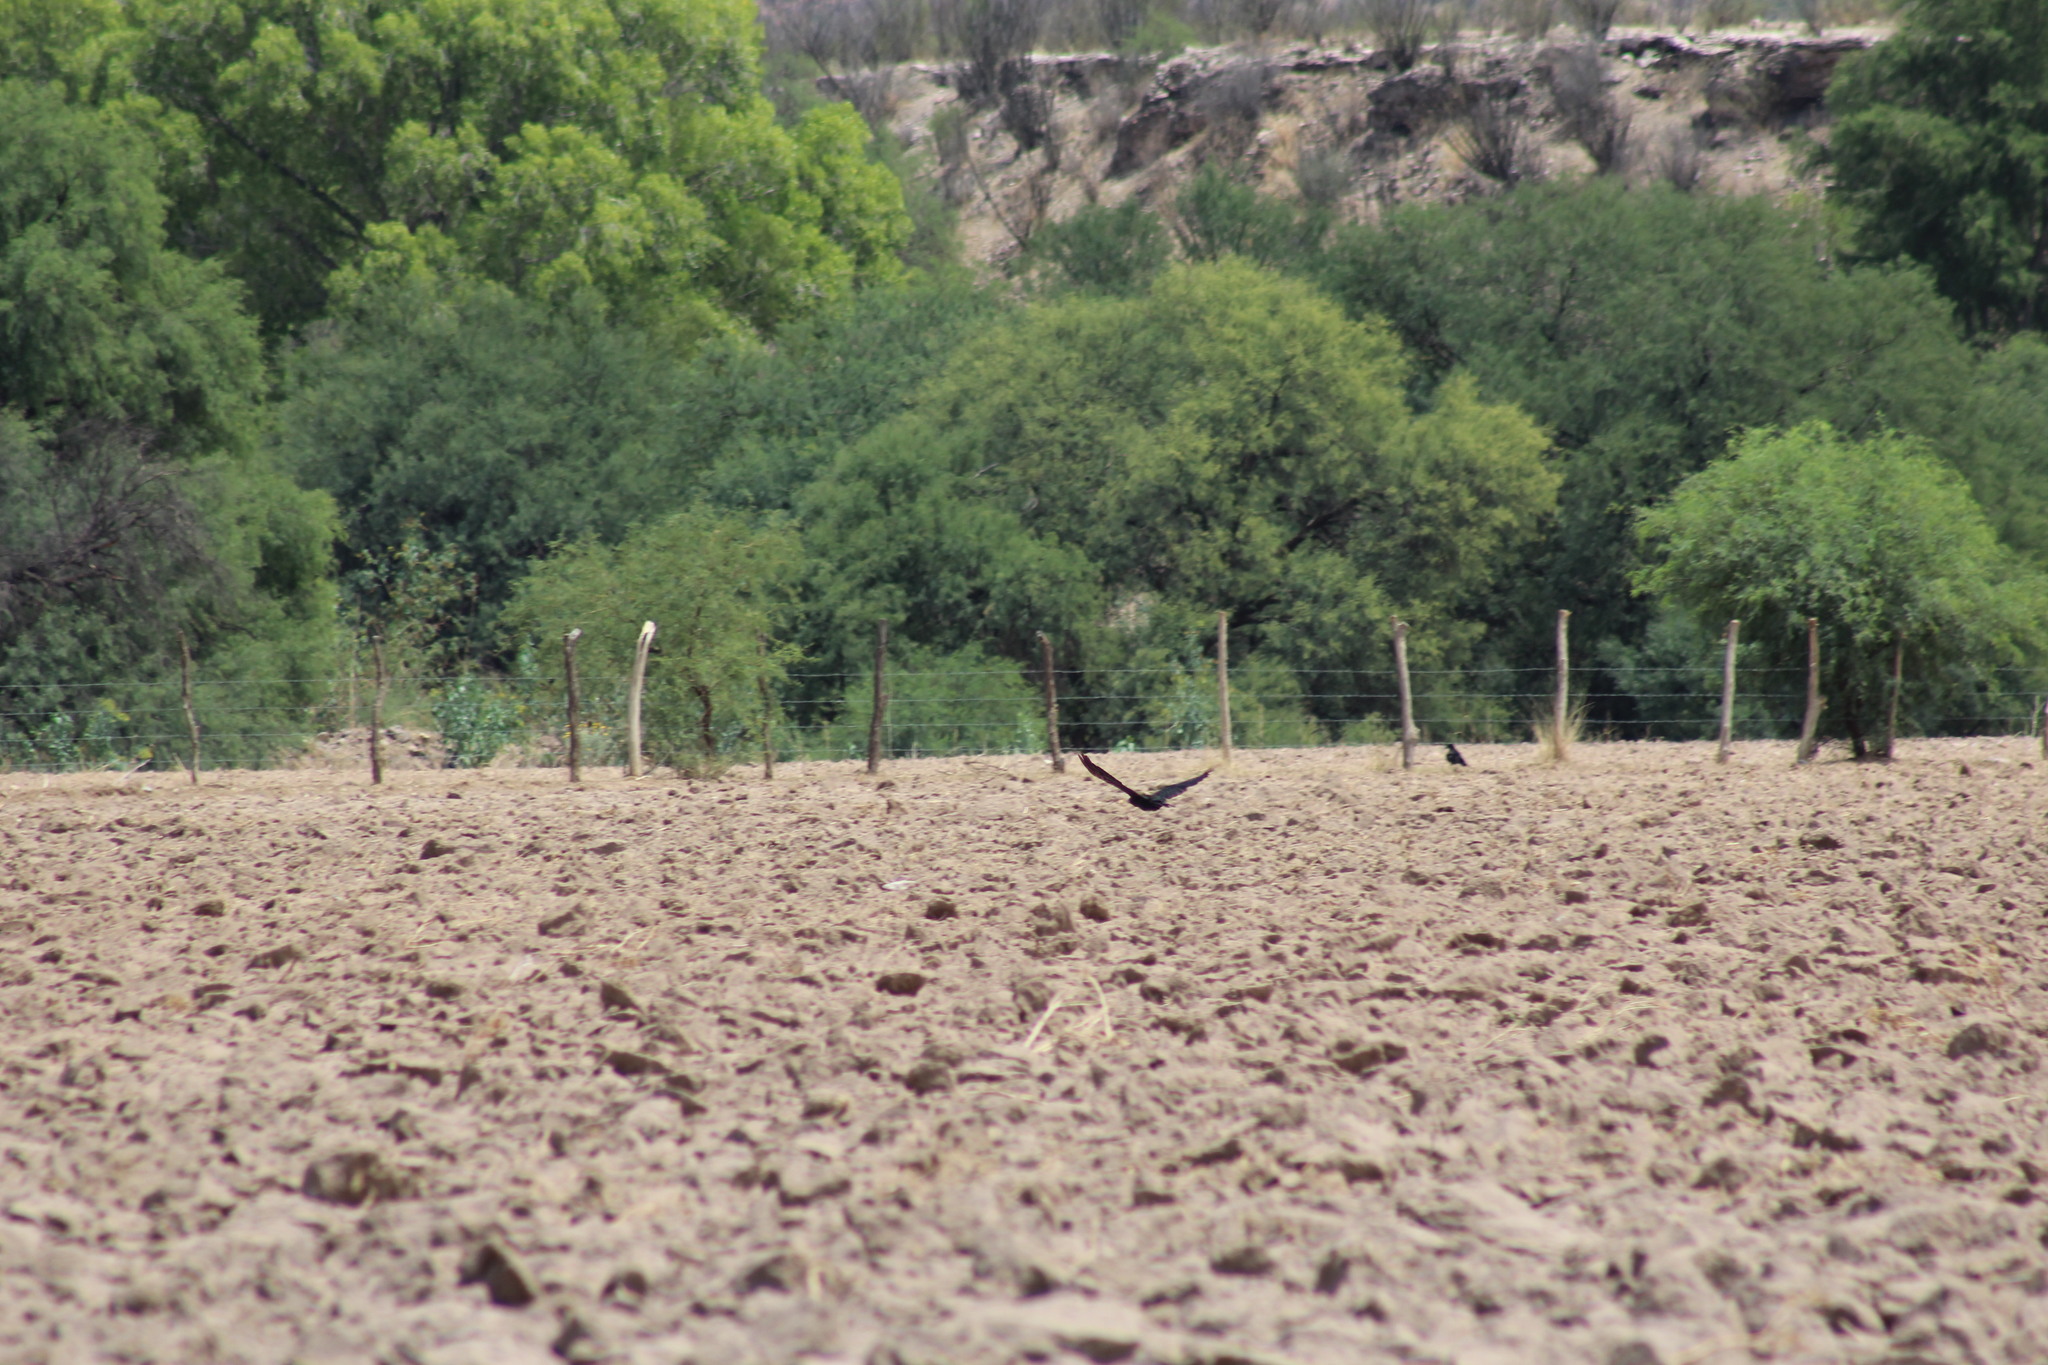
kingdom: Animalia
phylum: Chordata
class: Aves
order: Passeriformes
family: Corvidae
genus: Corvus
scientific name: Corvus corax
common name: Common raven
